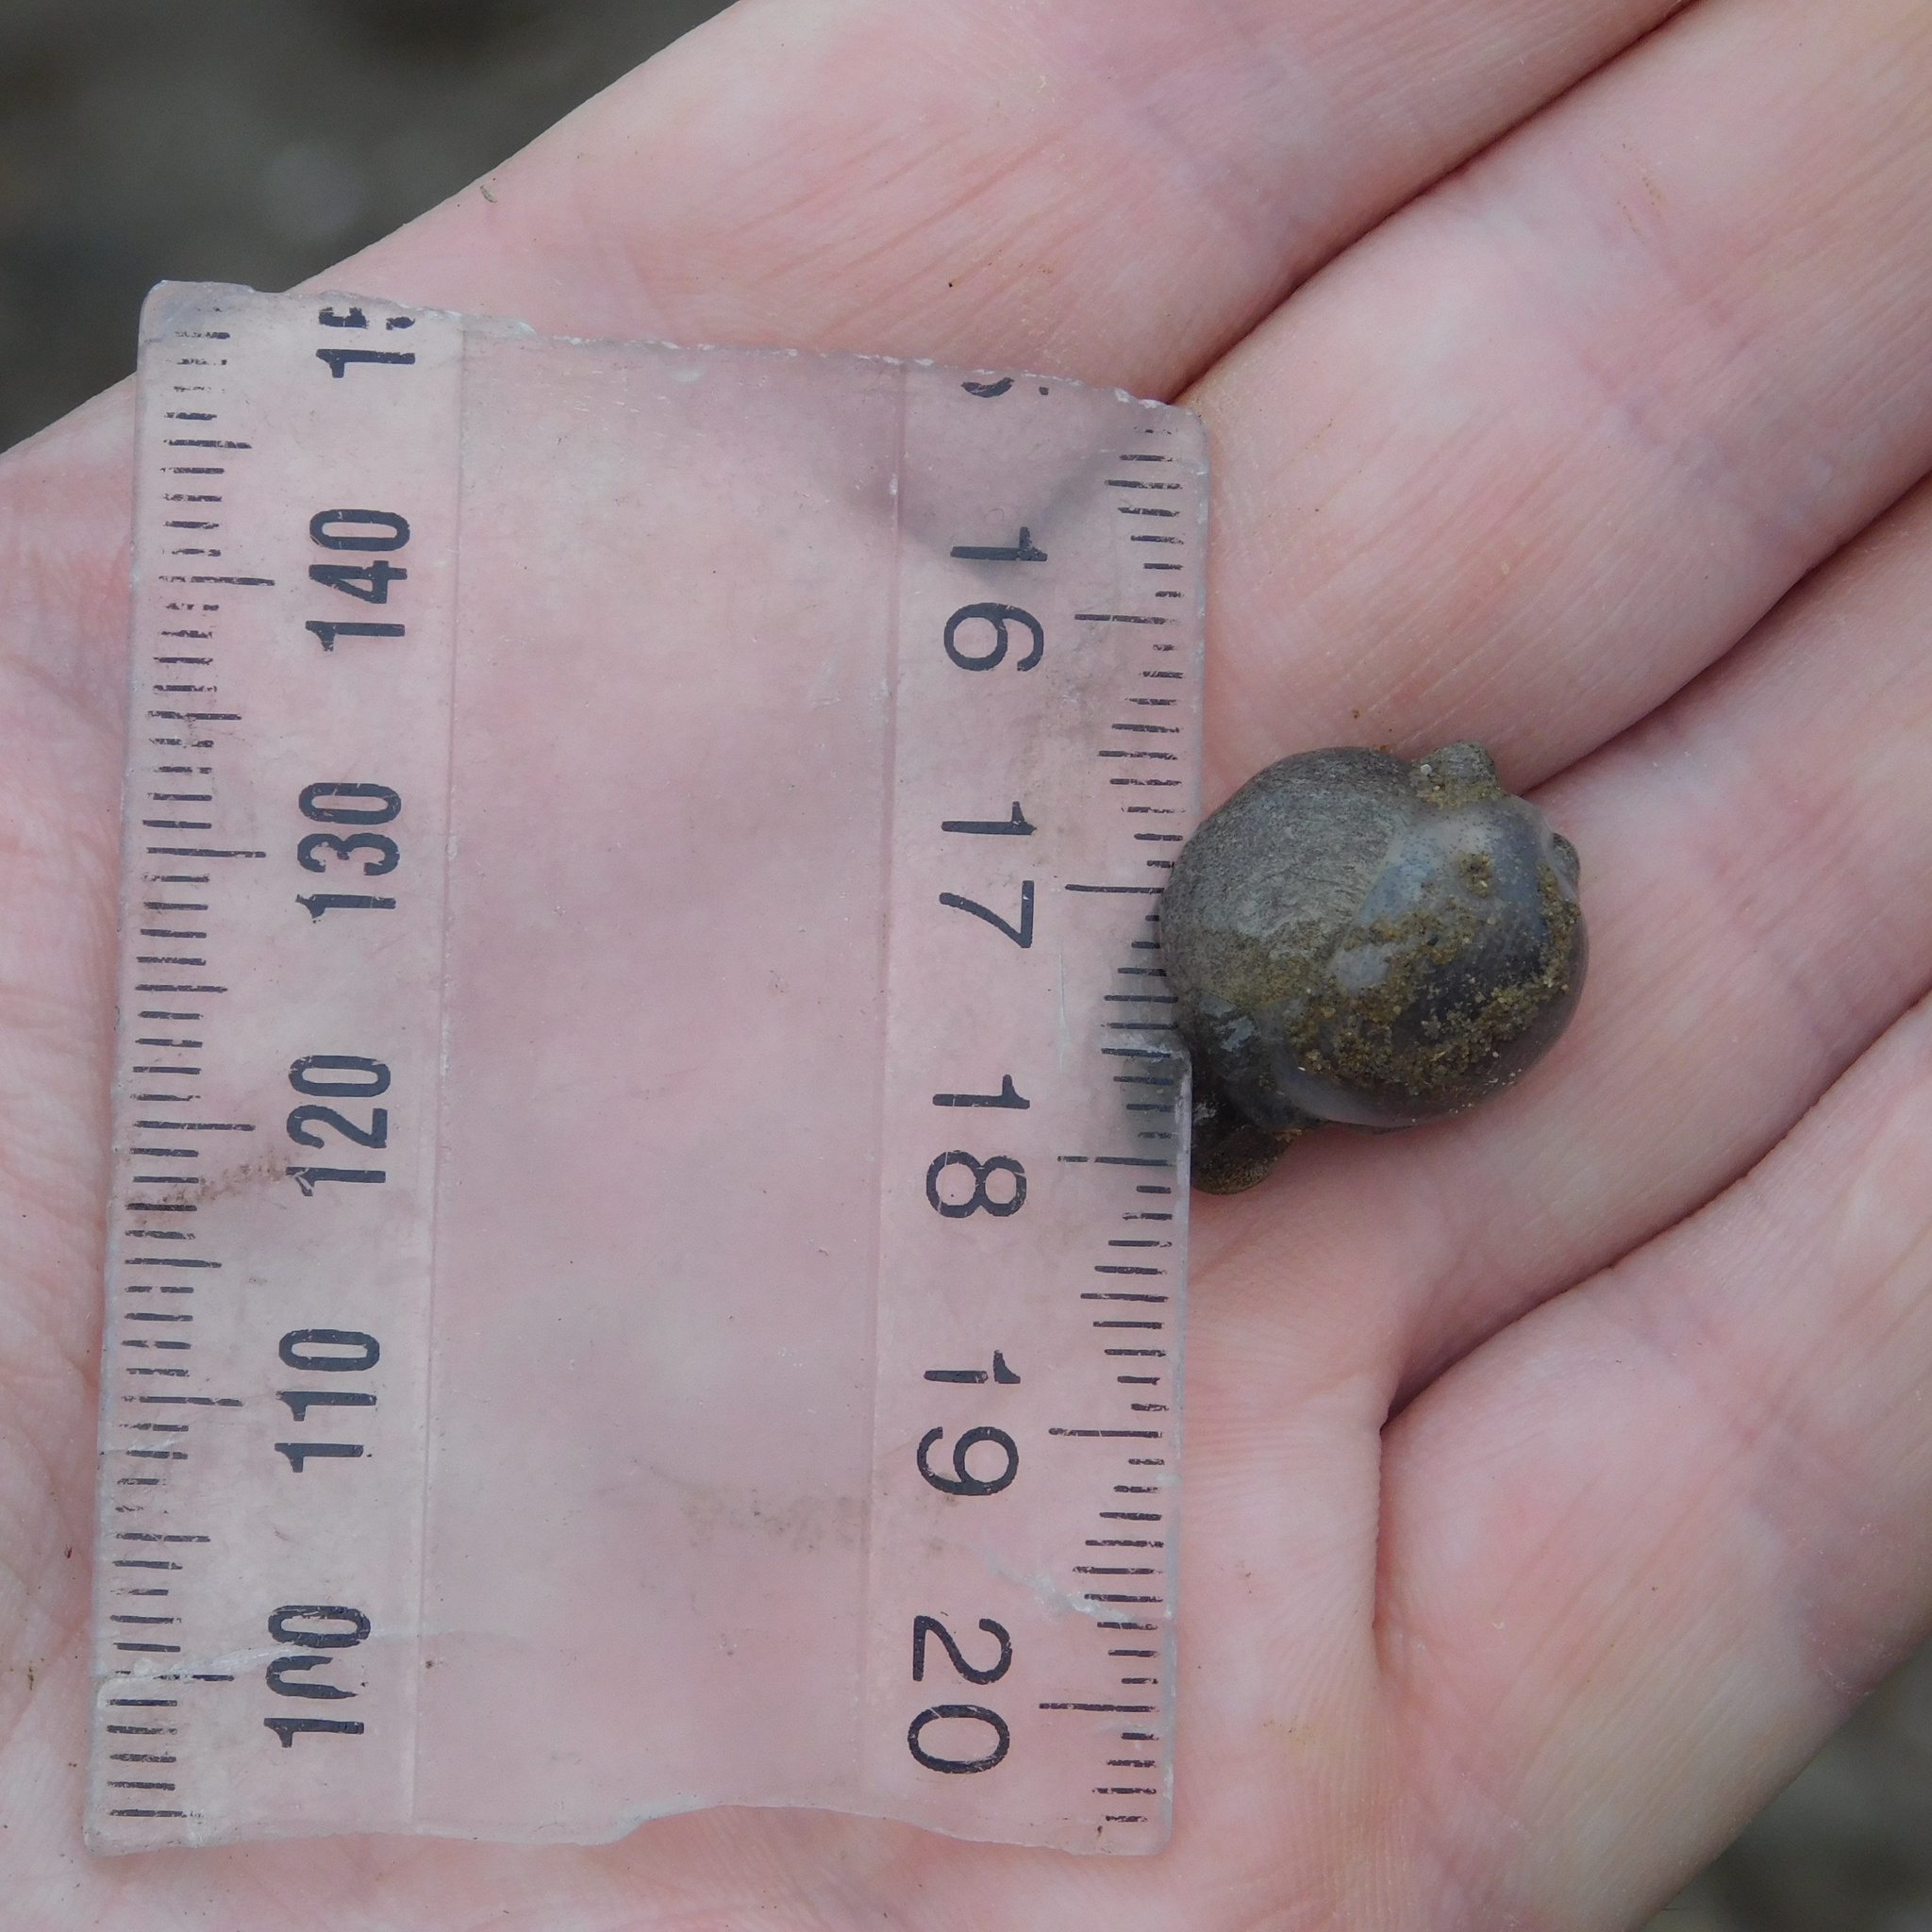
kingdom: Animalia
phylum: Mollusca
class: Gastropoda
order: Cephalaspidea
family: Haminoeidae
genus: Papawera
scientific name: Papawera zelandiae
